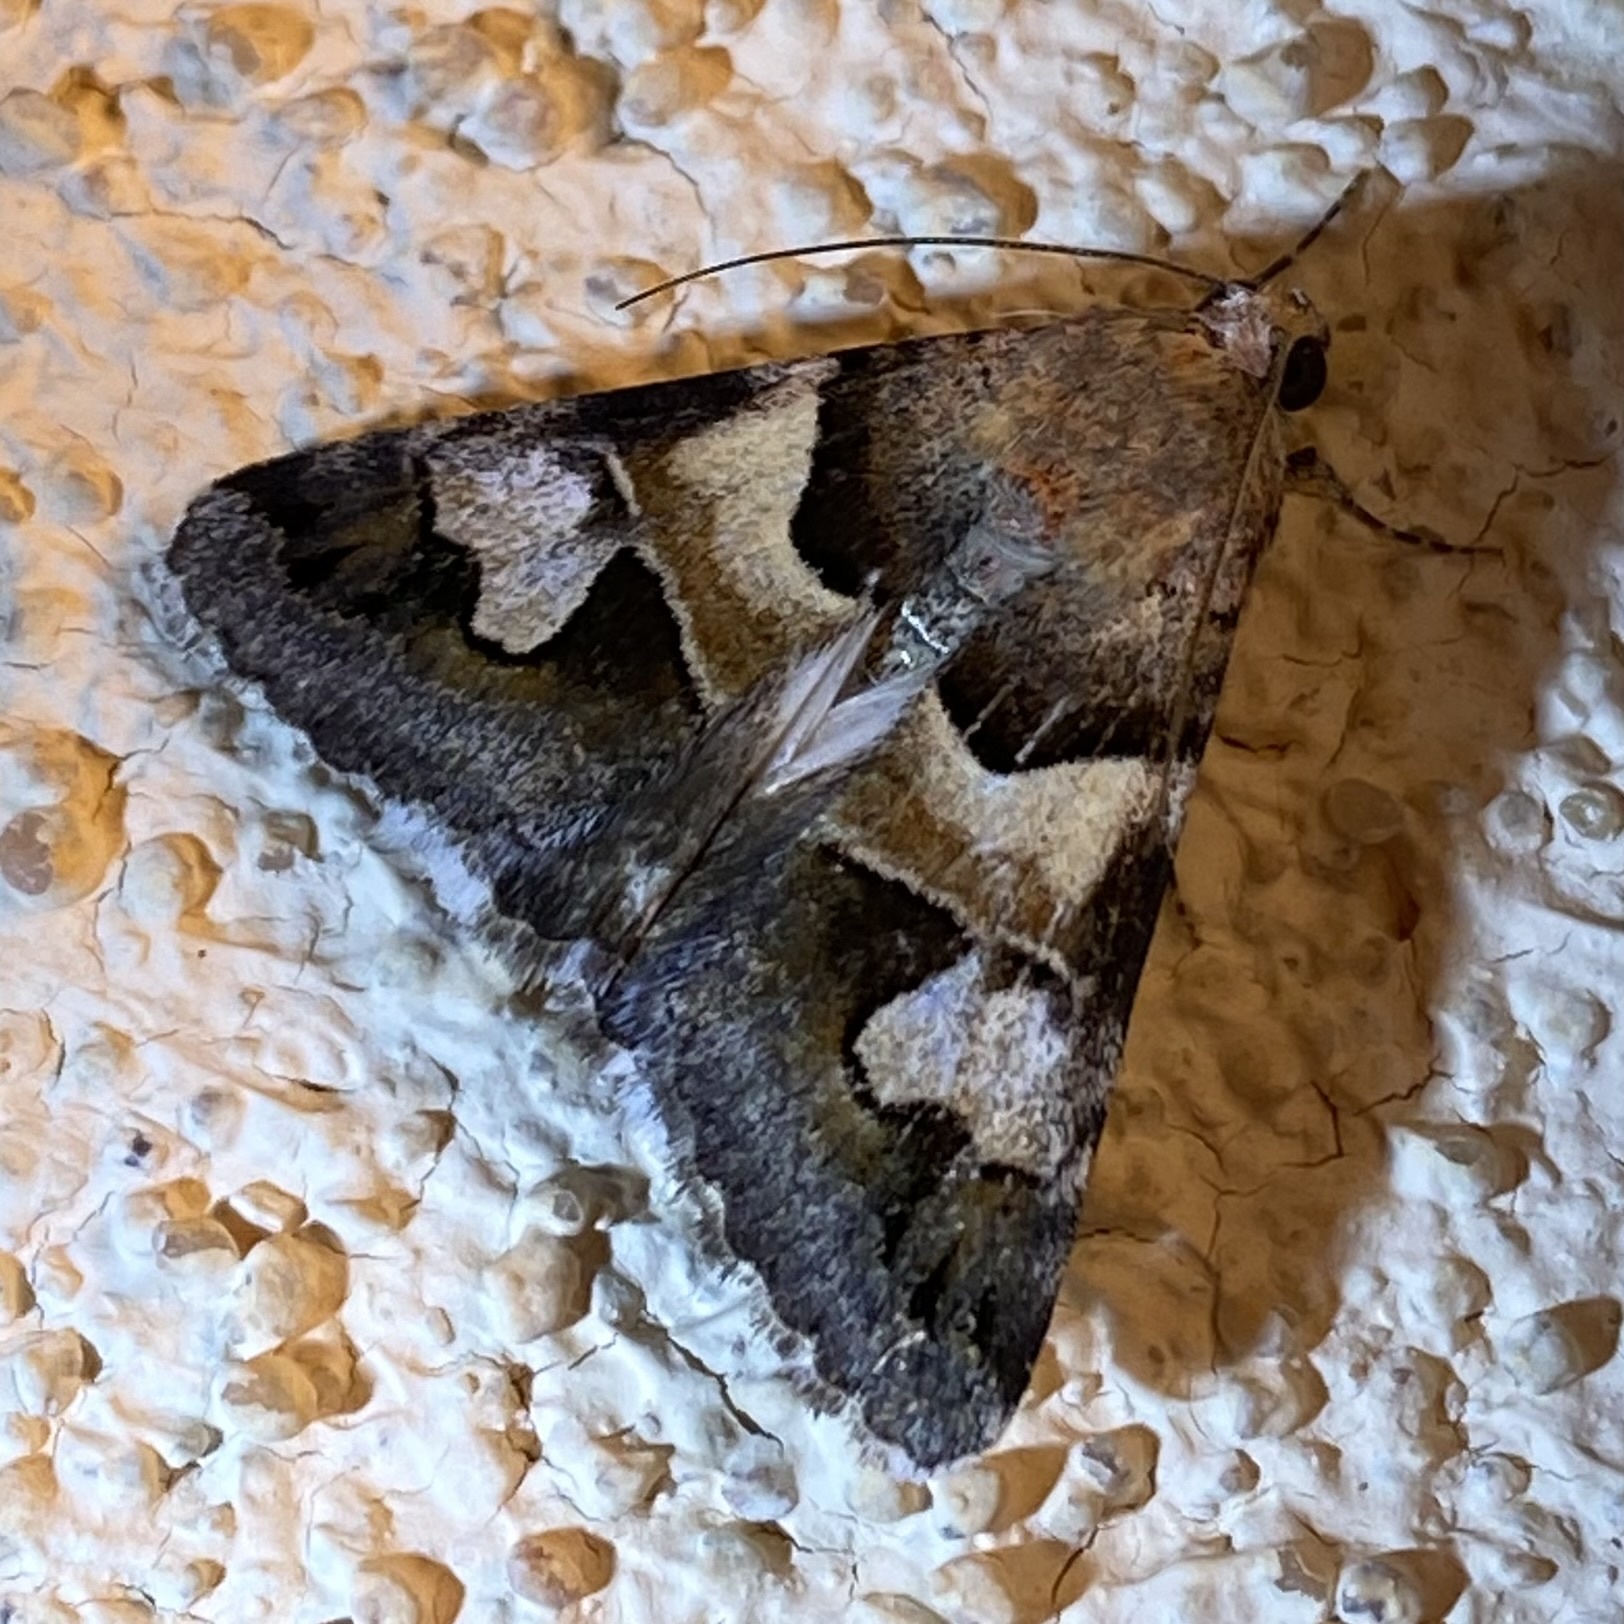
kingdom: Animalia
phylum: Arthropoda
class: Insecta
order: Lepidoptera
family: Erebidae
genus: Drasteria
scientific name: Drasteria pallescens
